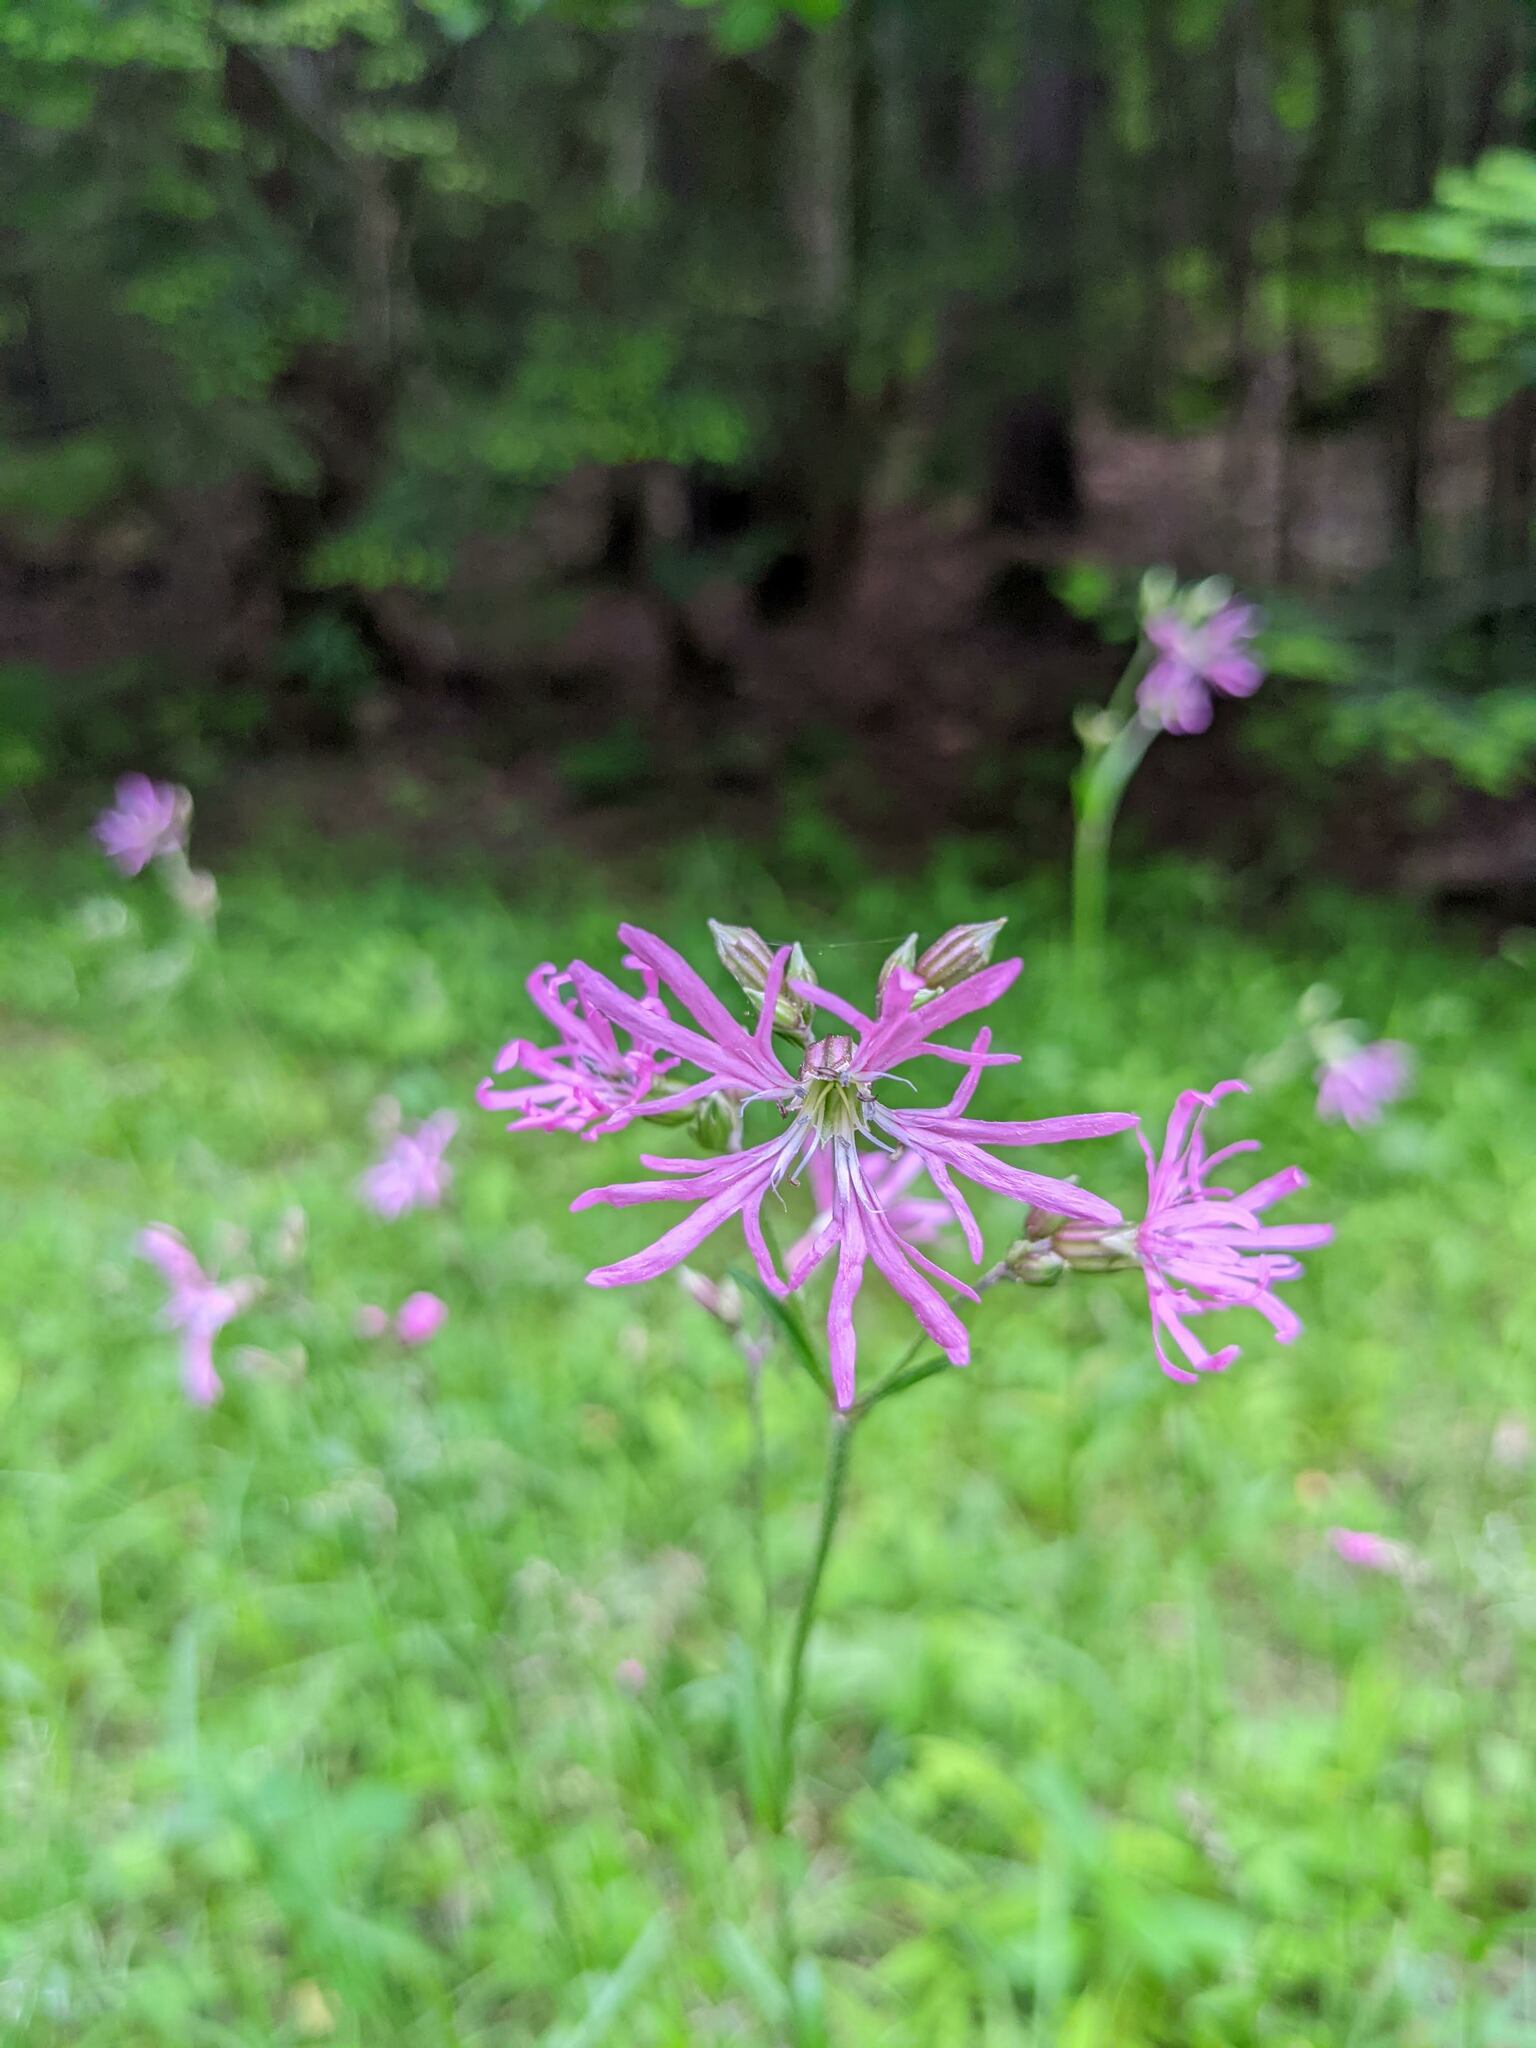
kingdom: Plantae
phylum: Tracheophyta
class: Magnoliopsida
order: Caryophyllales
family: Caryophyllaceae
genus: Silene
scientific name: Silene flos-cuculi
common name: Ragged-robin
